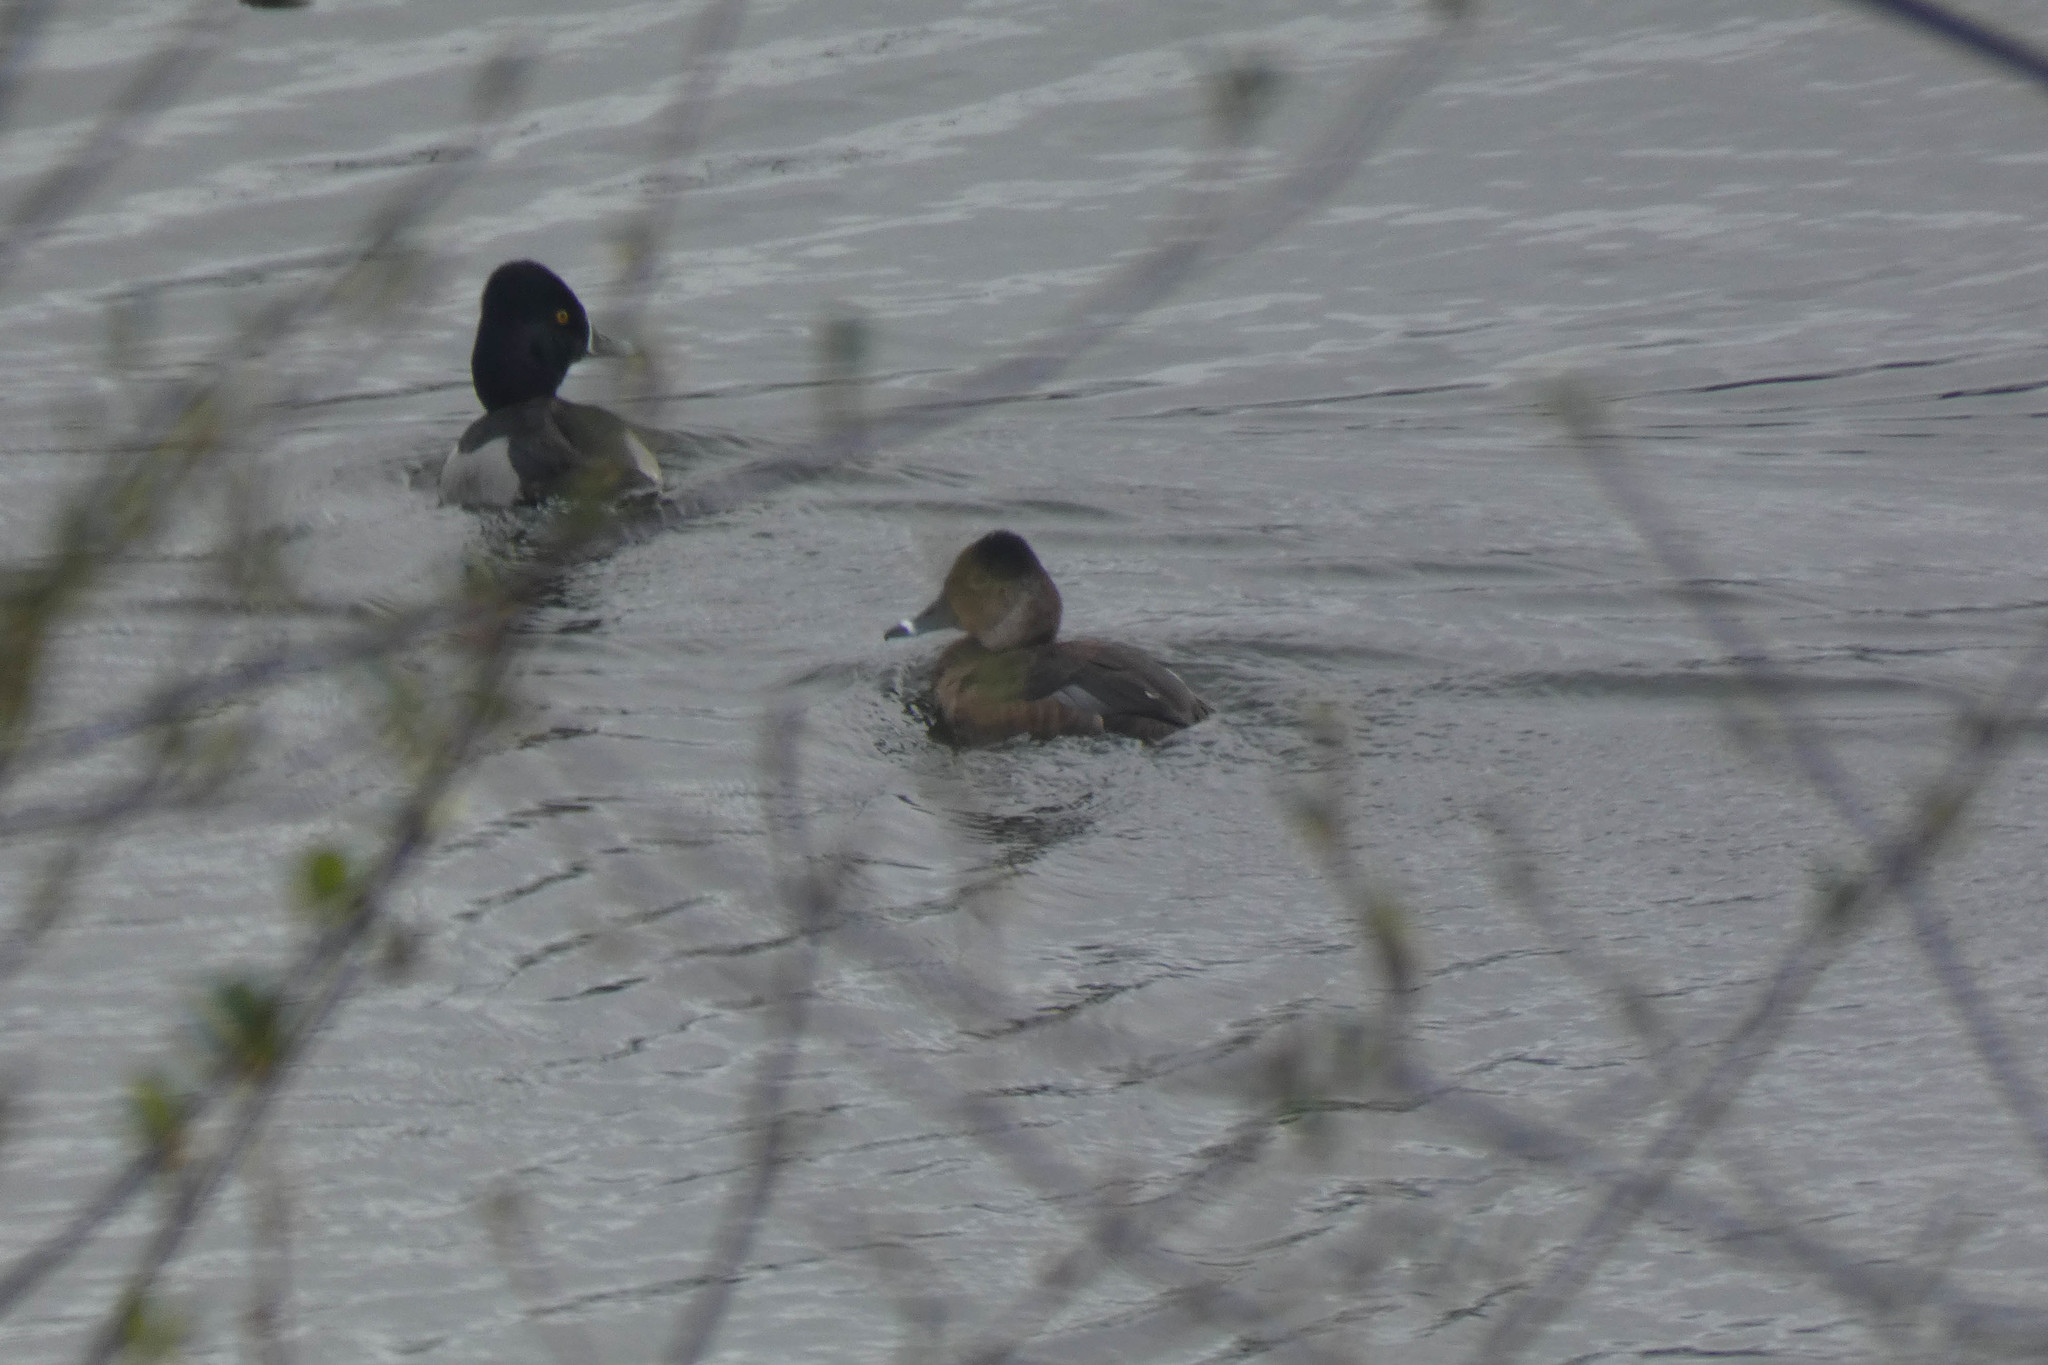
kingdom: Animalia
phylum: Chordata
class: Aves
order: Anseriformes
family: Anatidae
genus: Aythya
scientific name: Aythya collaris
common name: Ring-necked duck
